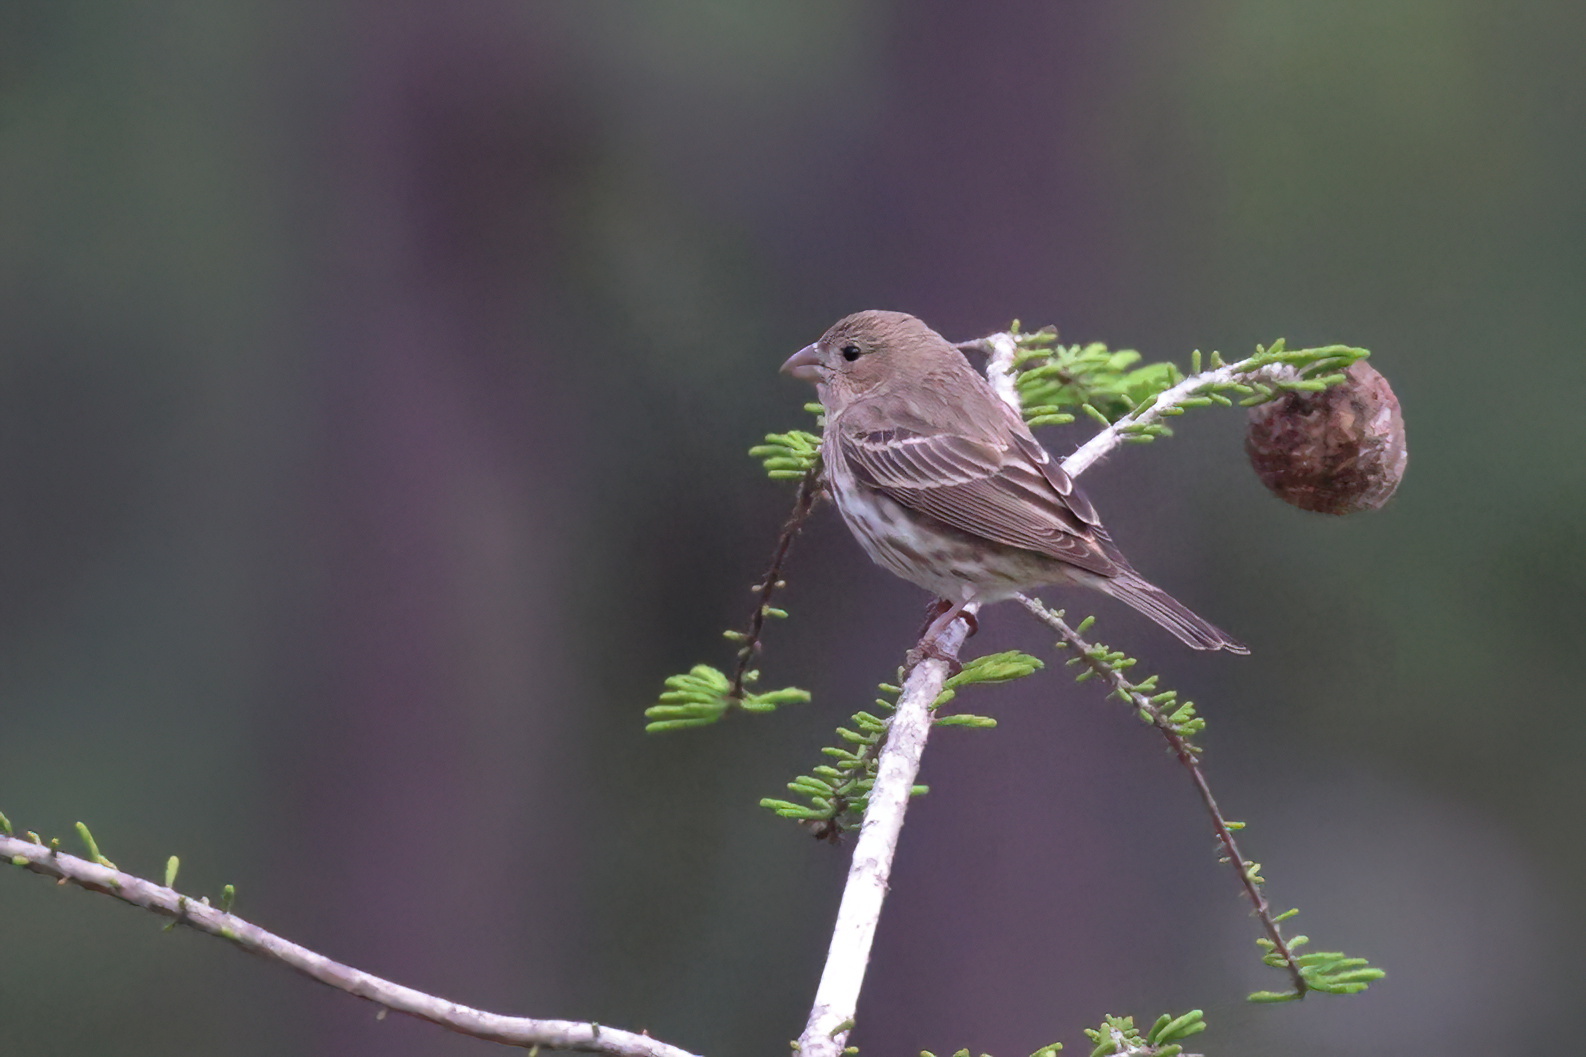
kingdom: Animalia
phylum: Chordata
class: Aves
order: Passeriformes
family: Fringillidae
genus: Haemorhous
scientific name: Haemorhous mexicanus
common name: House finch
